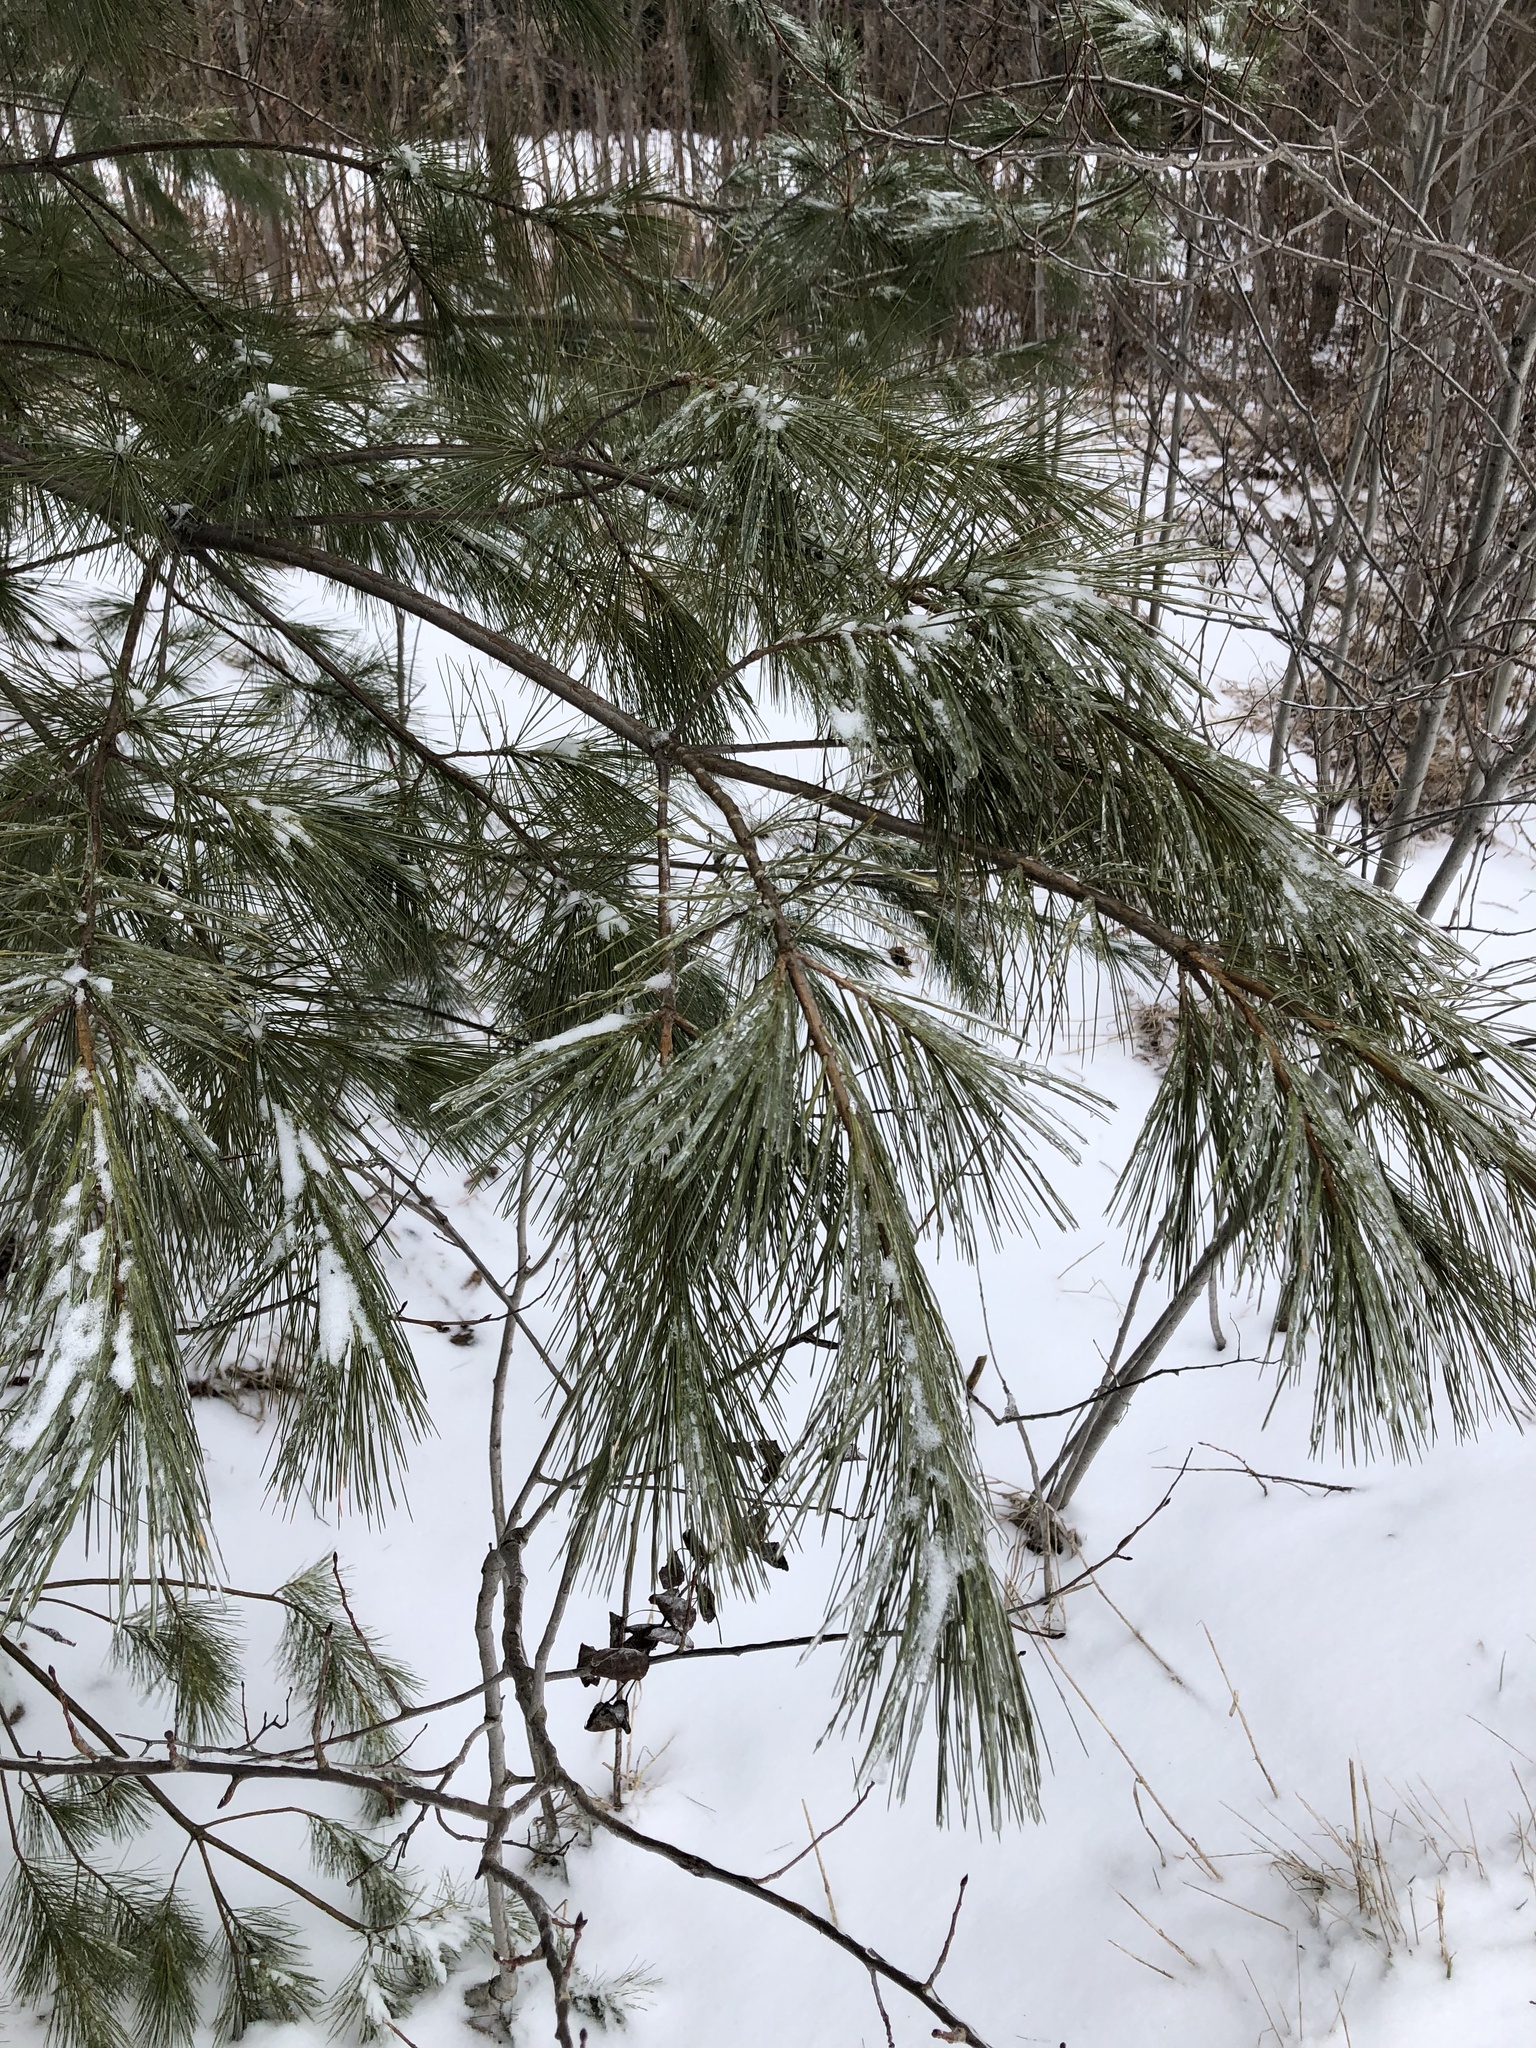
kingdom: Plantae
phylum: Tracheophyta
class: Pinopsida
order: Pinales
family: Pinaceae
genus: Pinus
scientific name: Pinus strobus
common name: Weymouth pine
